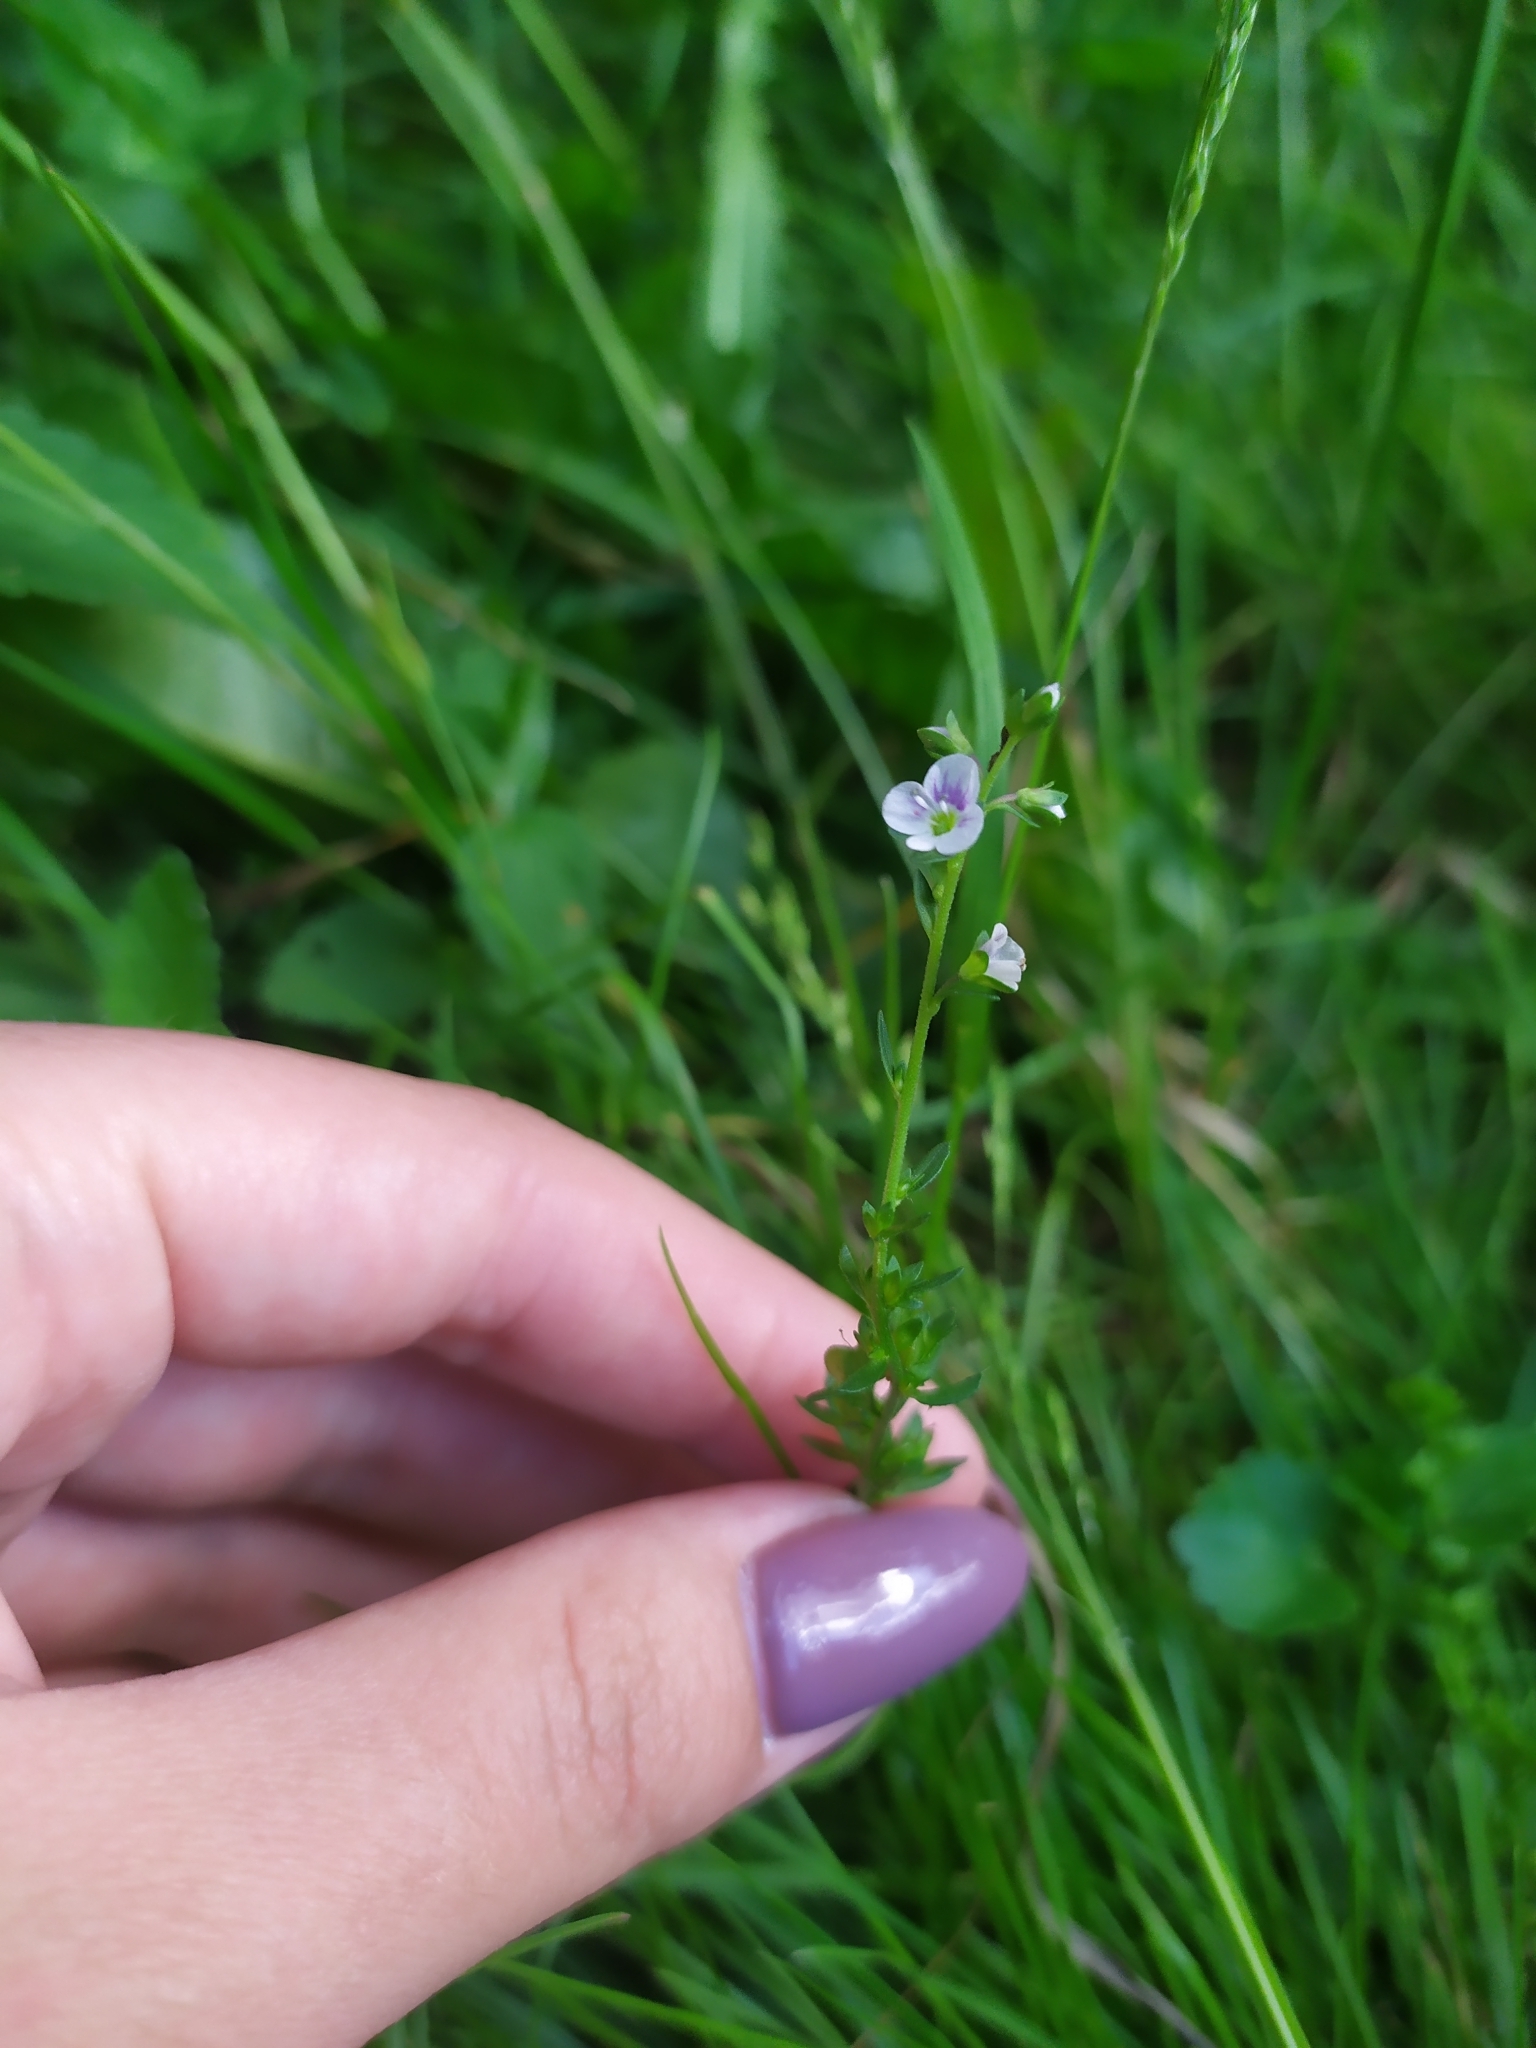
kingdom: Plantae
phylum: Tracheophyta
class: Magnoliopsida
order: Lamiales
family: Plantaginaceae
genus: Veronica
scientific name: Veronica serpyllifolia
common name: Thyme-leaved speedwell
